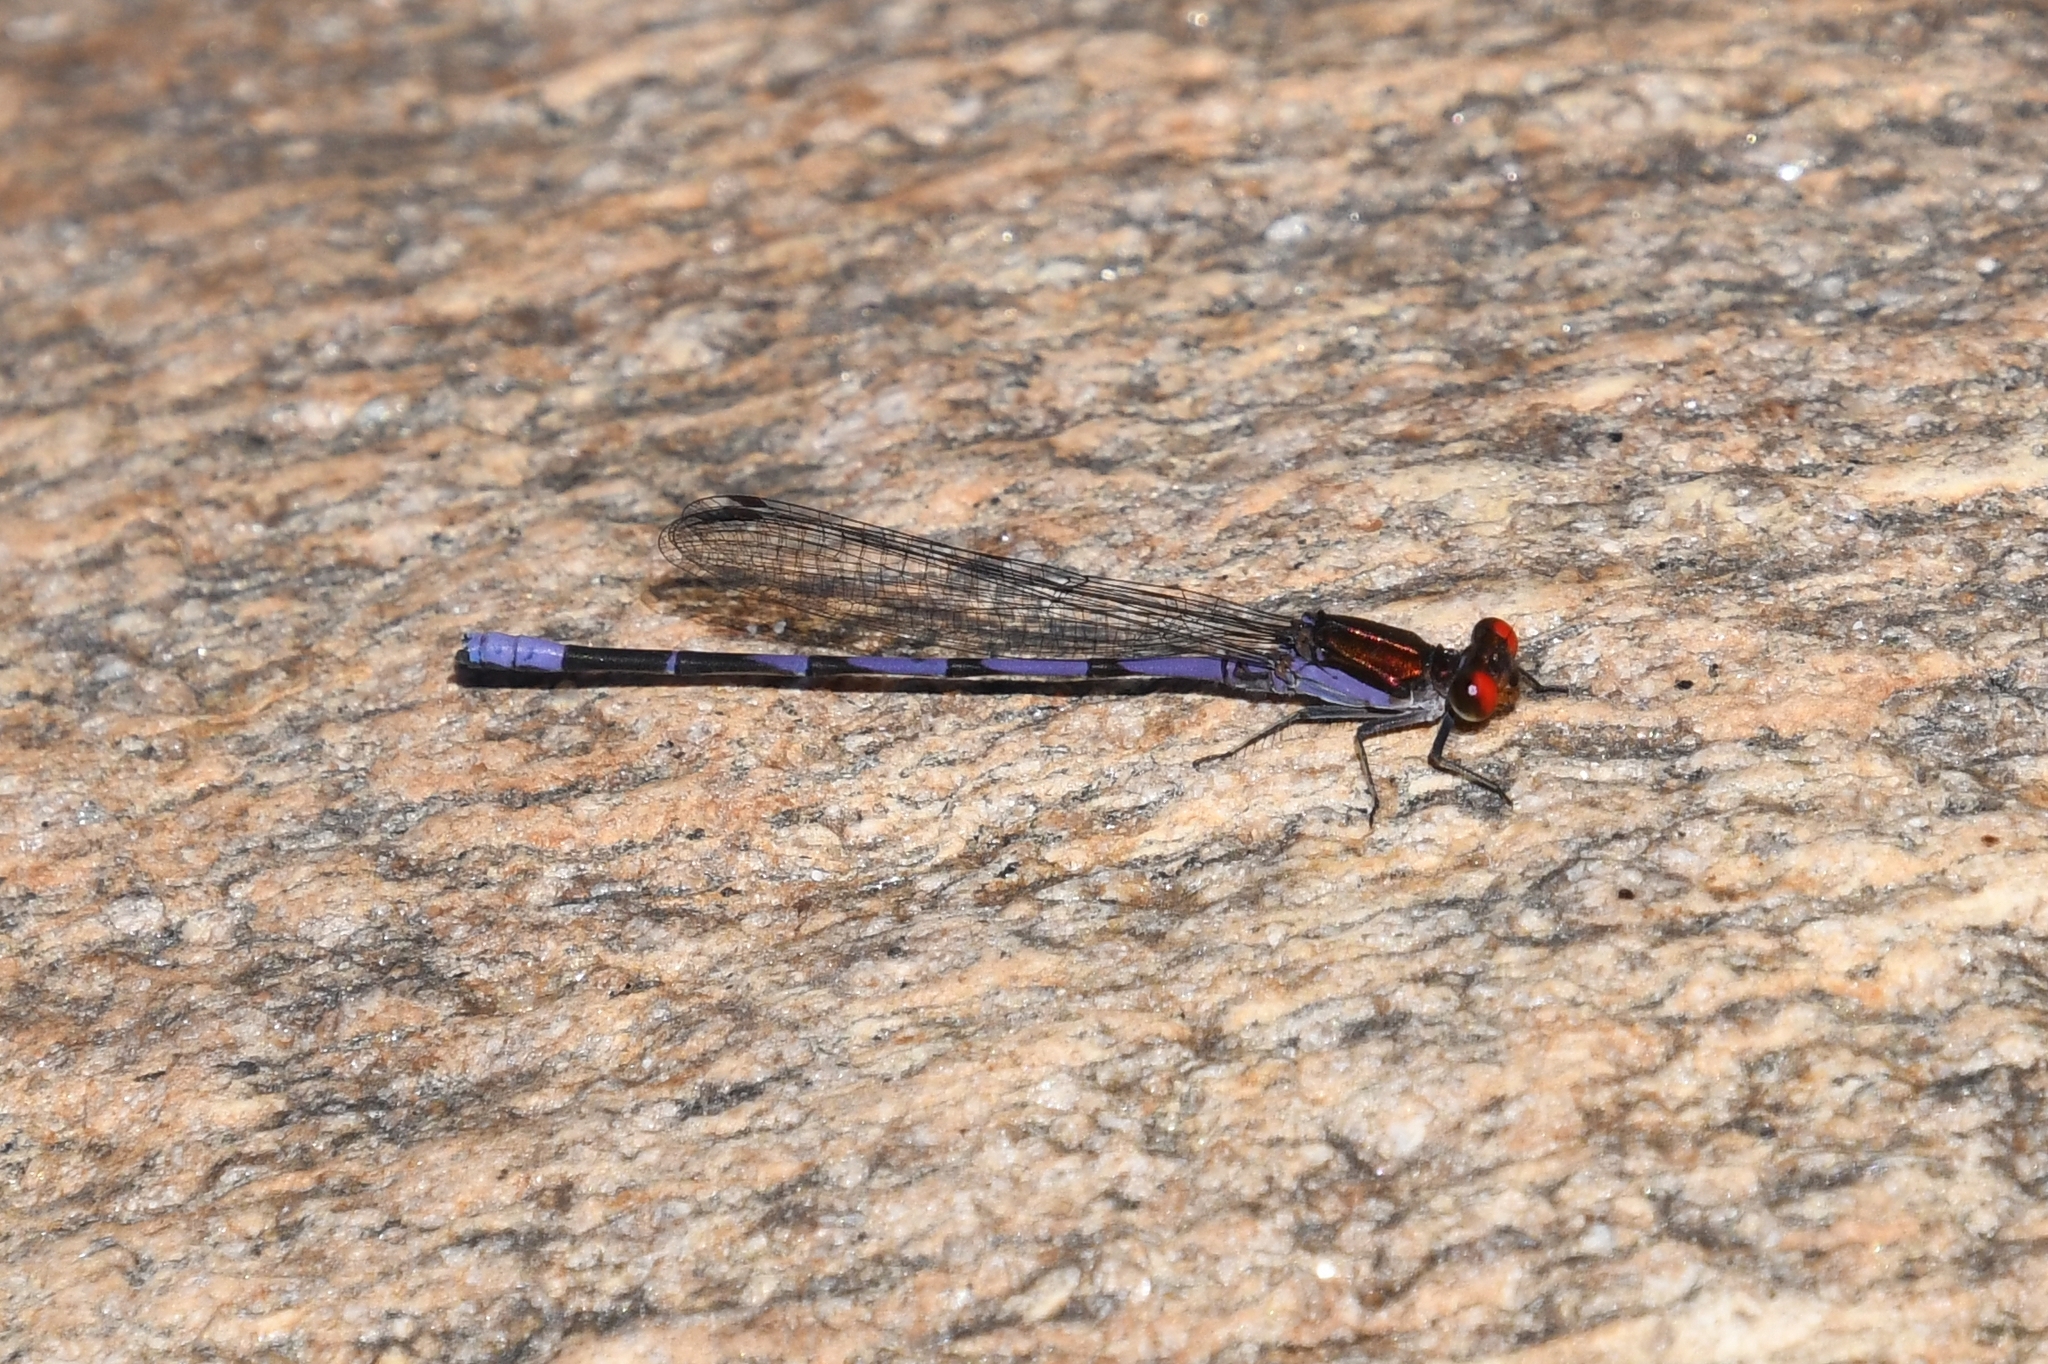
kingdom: Animalia
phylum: Arthropoda
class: Insecta
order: Odonata
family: Coenagrionidae
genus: Argia
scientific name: Argia oenea
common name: Fiery-eyed dancer
